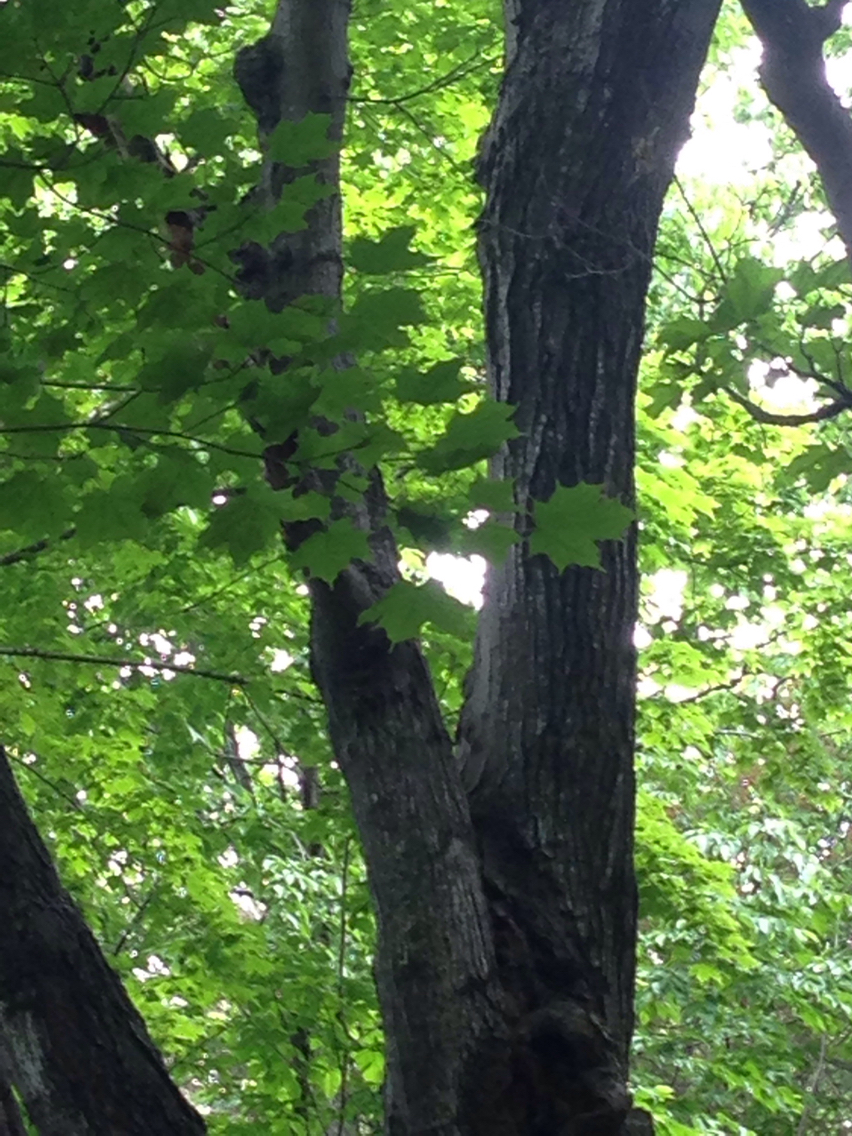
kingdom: Plantae
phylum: Tracheophyta
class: Magnoliopsida
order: Sapindales
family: Sapindaceae
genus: Acer
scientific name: Acer saccharum
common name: Sugar maple
